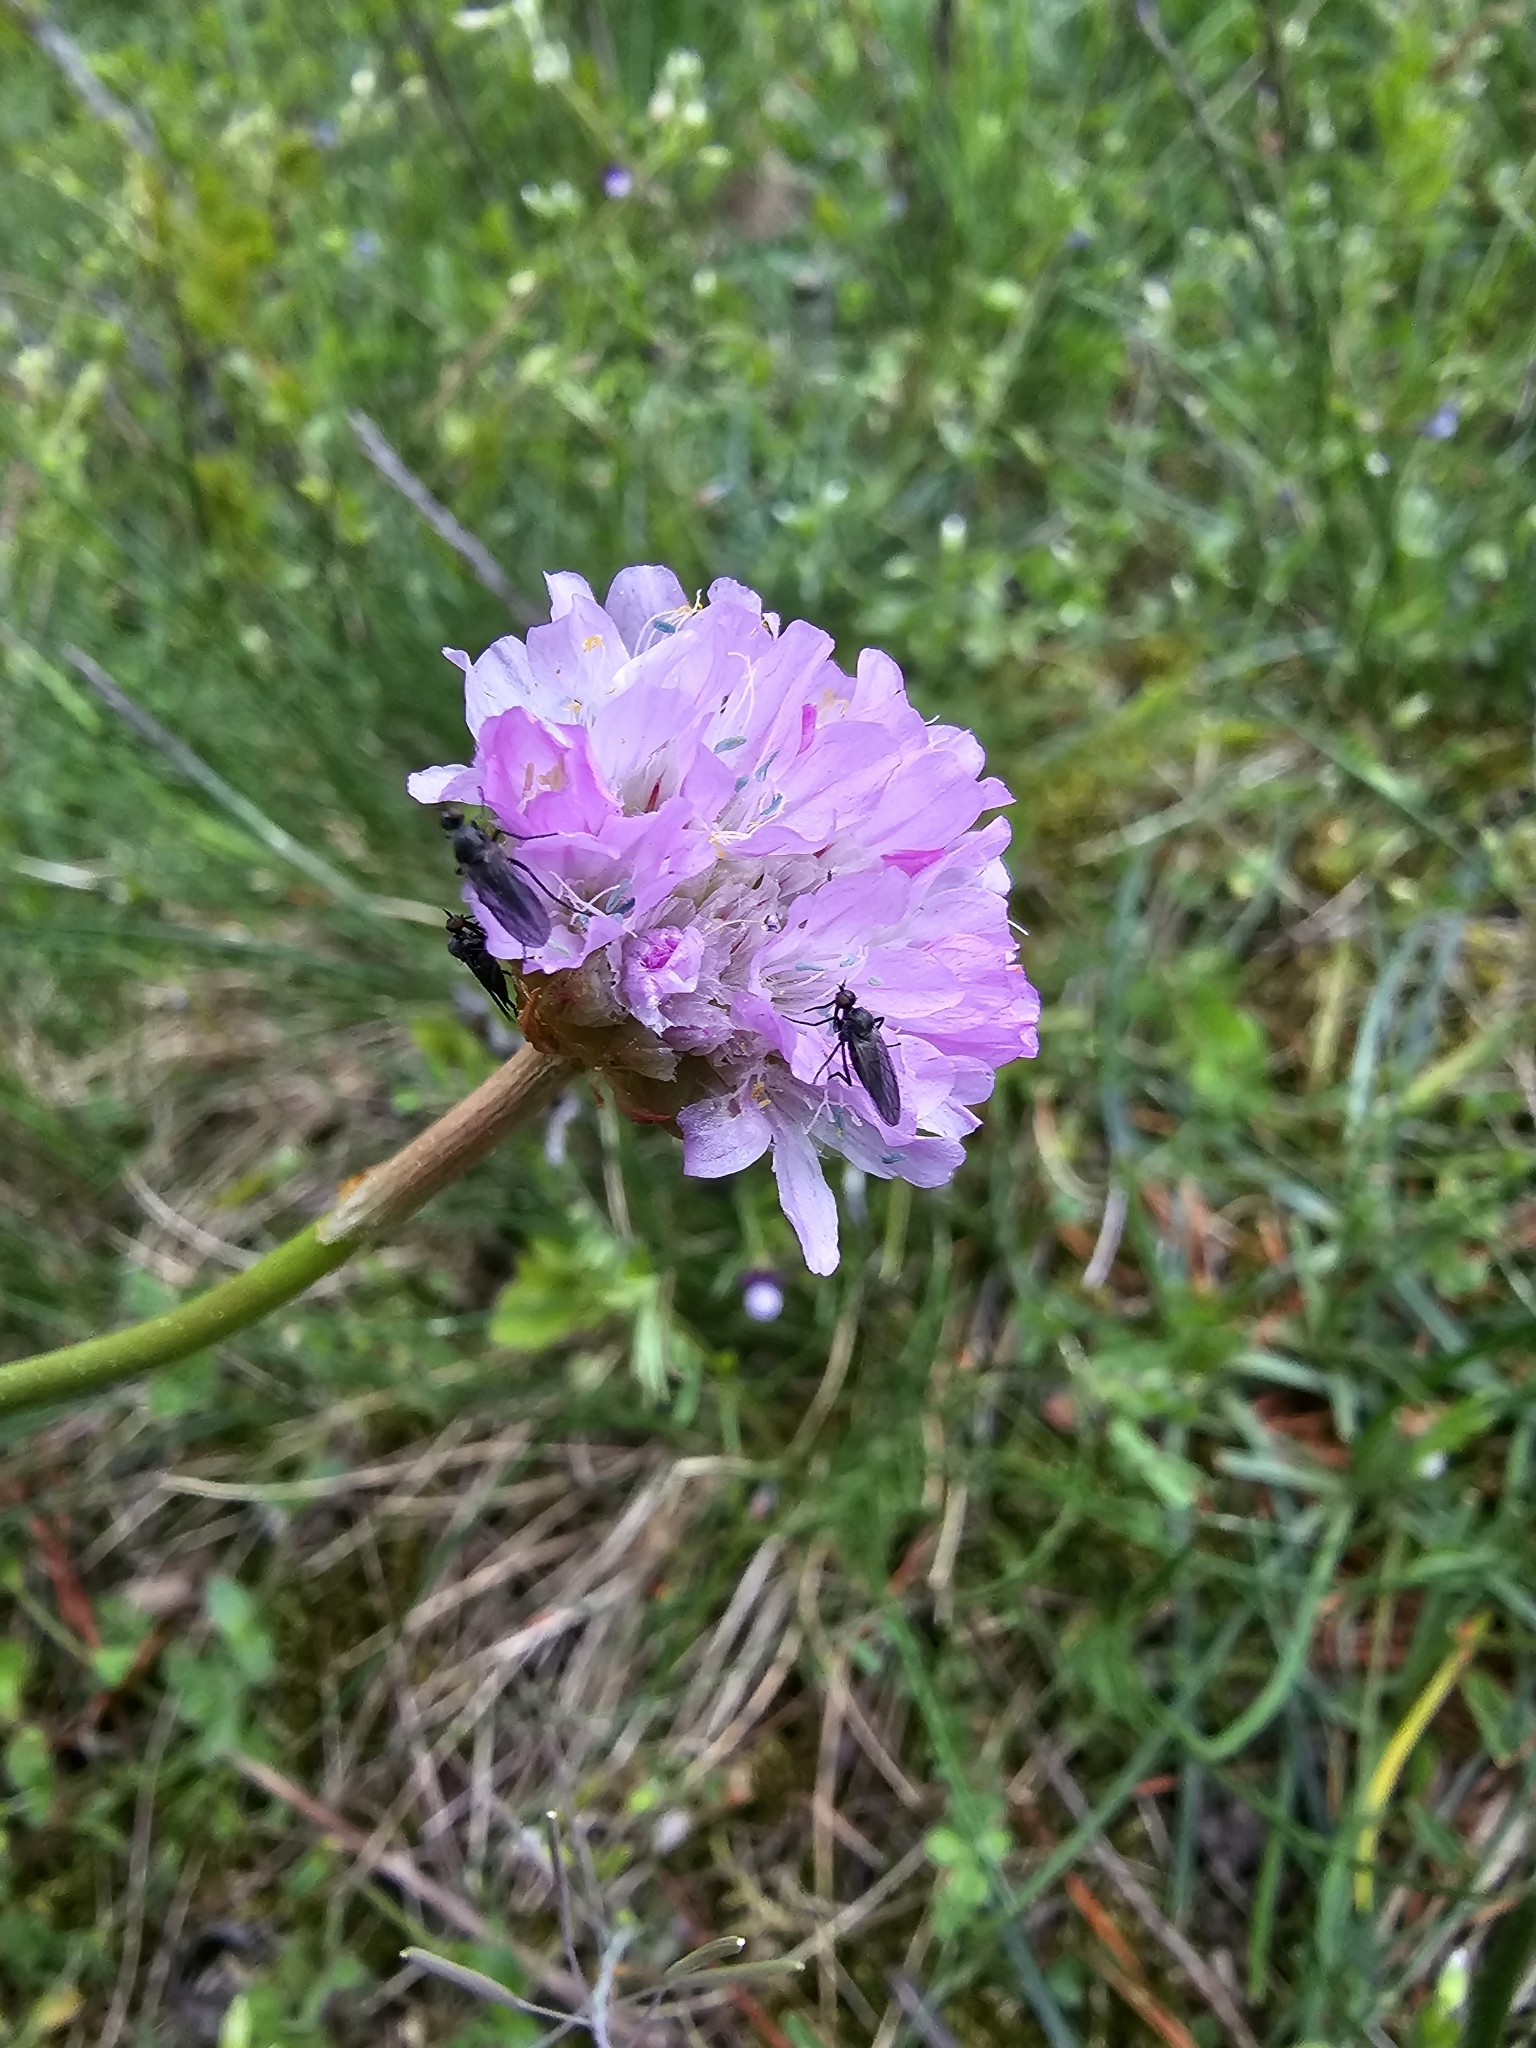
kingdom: Plantae
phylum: Tracheophyta
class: Magnoliopsida
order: Caryophyllales
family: Plumbaginaceae
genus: Armeria
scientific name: Armeria maritima
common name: Thrift
